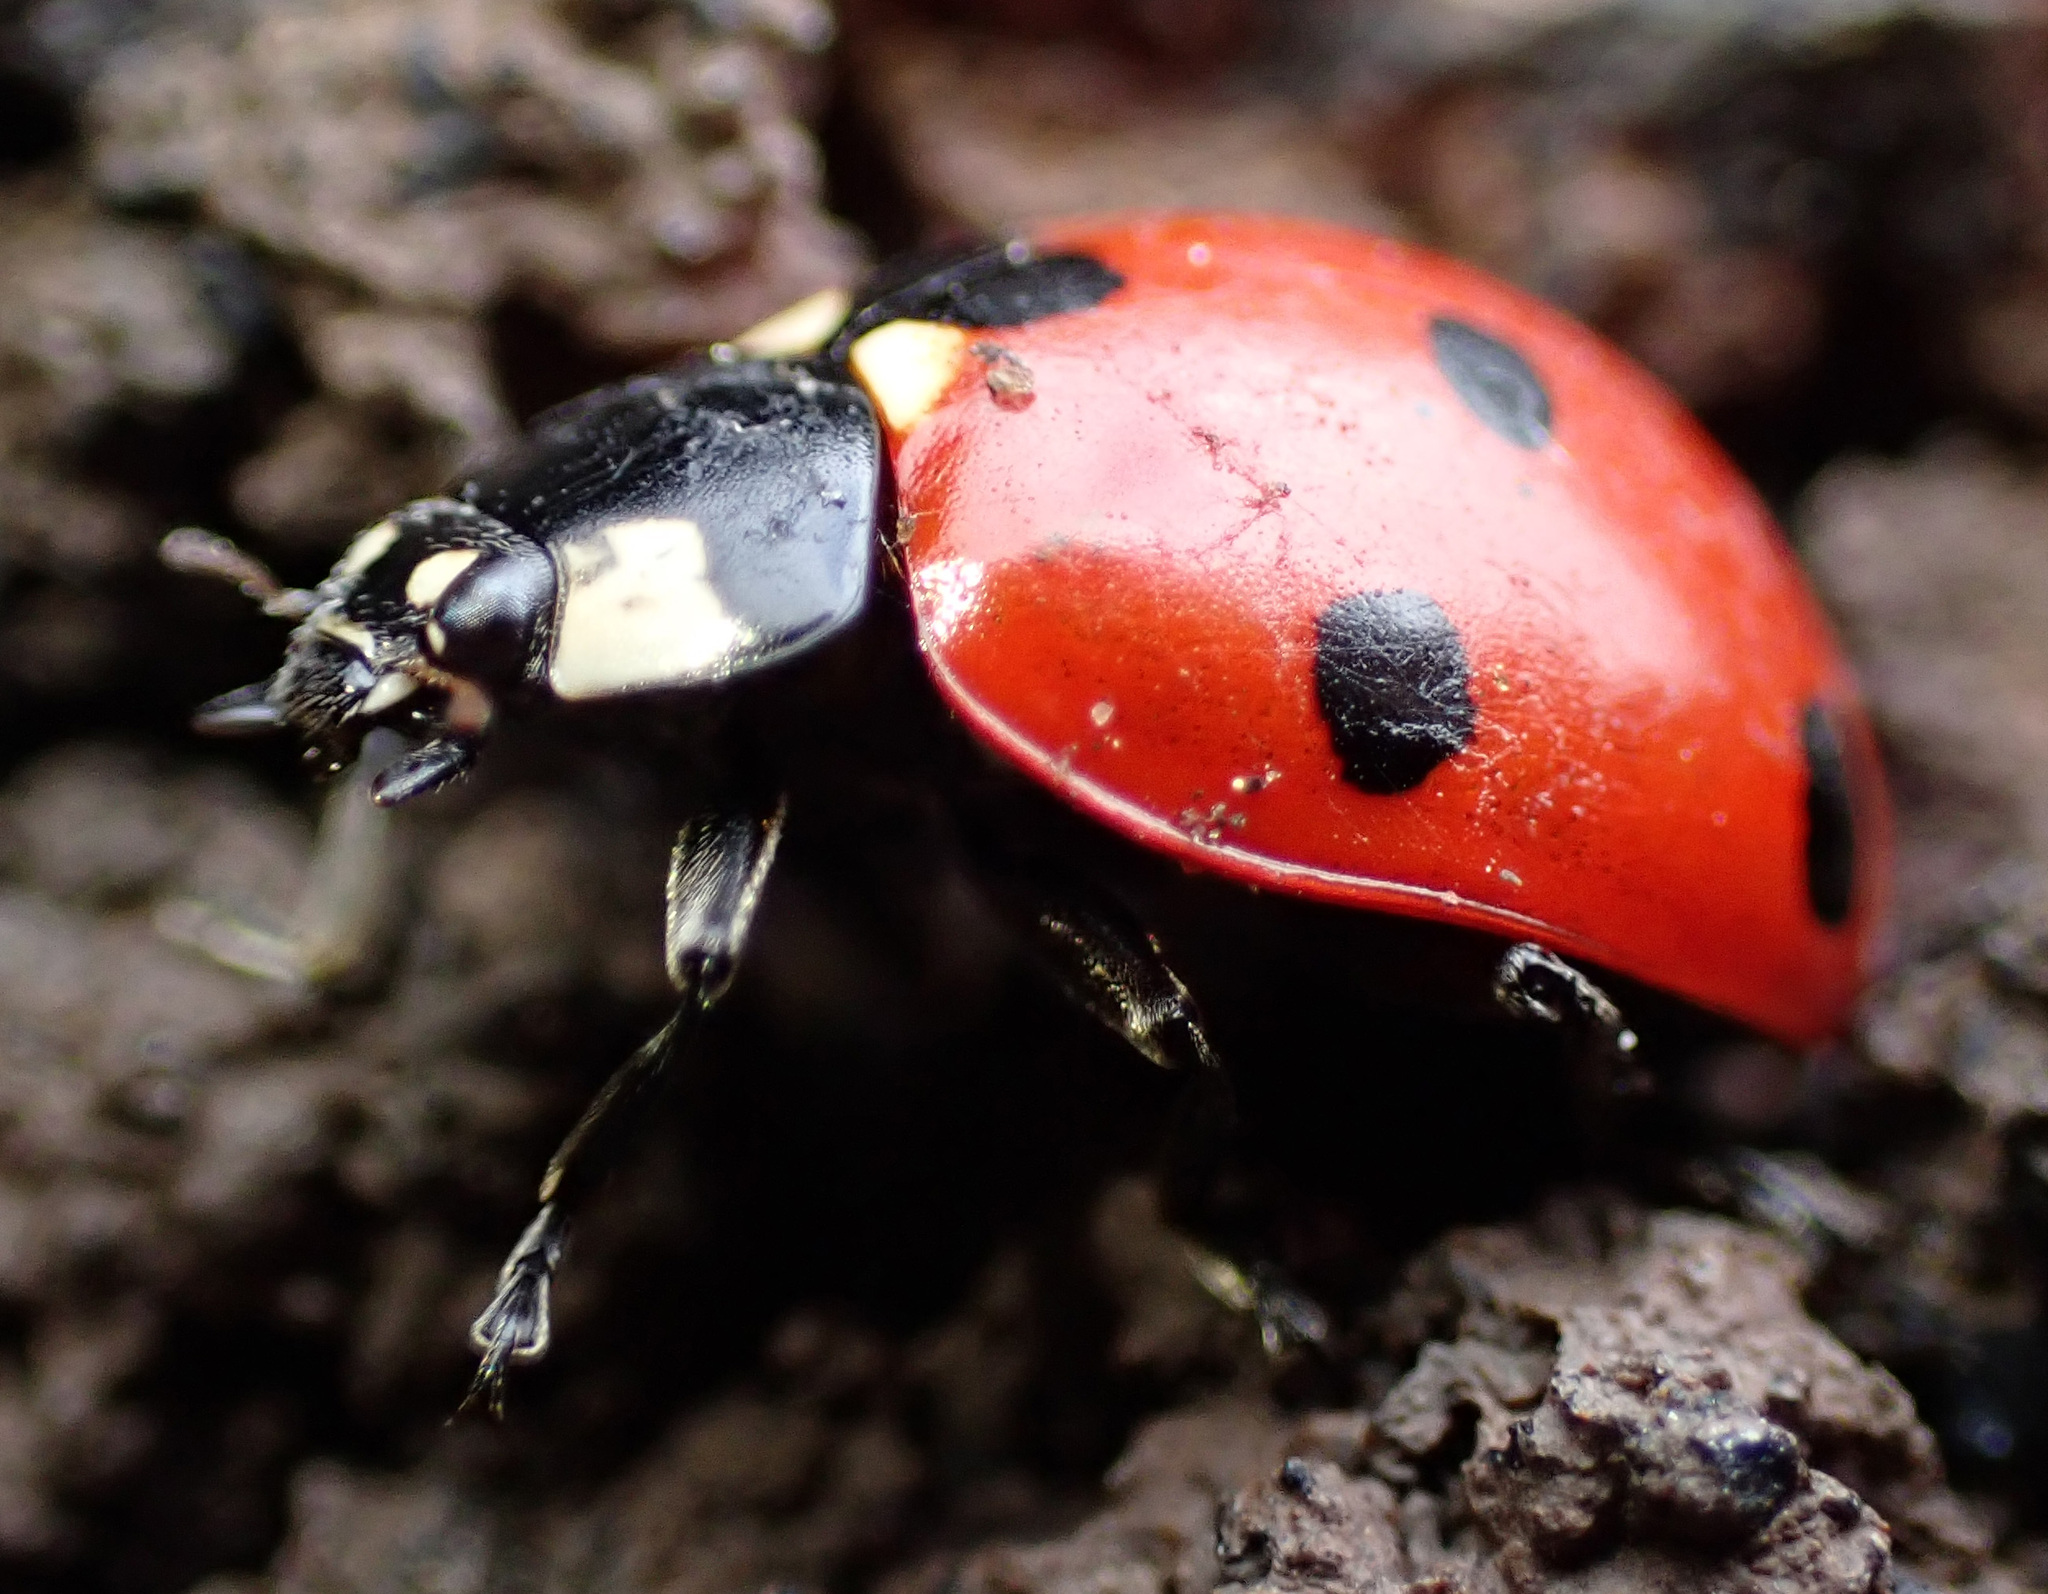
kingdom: Animalia
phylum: Arthropoda
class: Insecta
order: Coleoptera
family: Coccinellidae
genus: Coccinella
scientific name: Coccinella septempunctata
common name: Sevenspotted lady beetle
